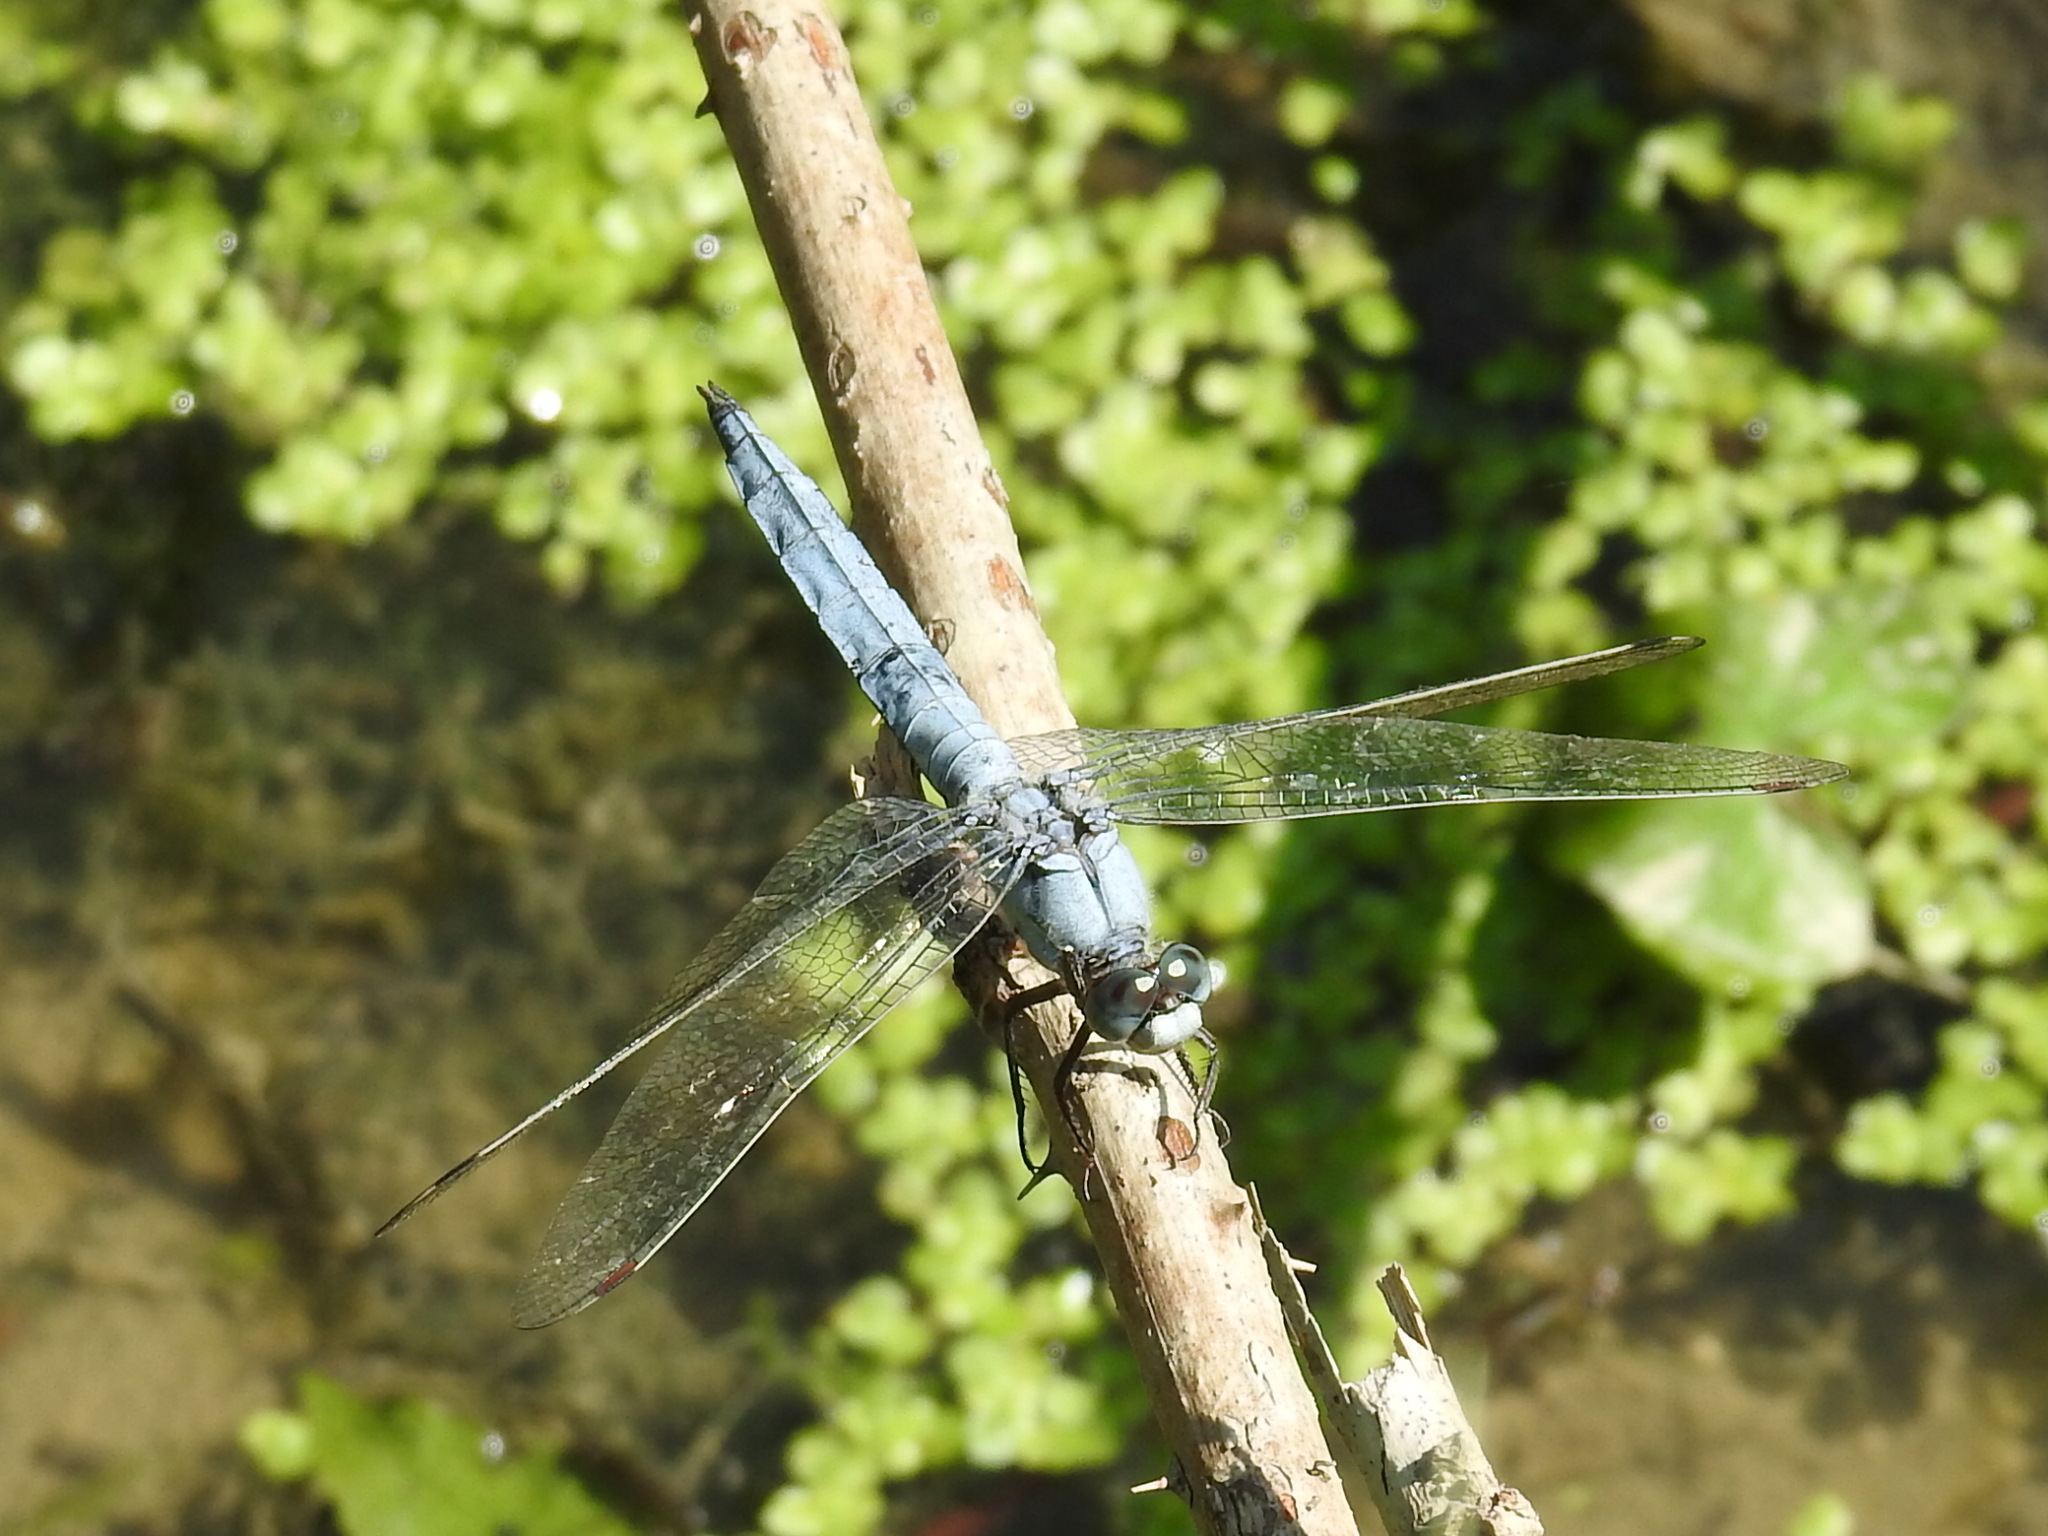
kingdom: Animalia
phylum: Arthropoda
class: Insecta
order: Odonata
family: Libellulidae
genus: Orthetrum
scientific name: Orthetrum brunneum
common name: Southern skimmer
